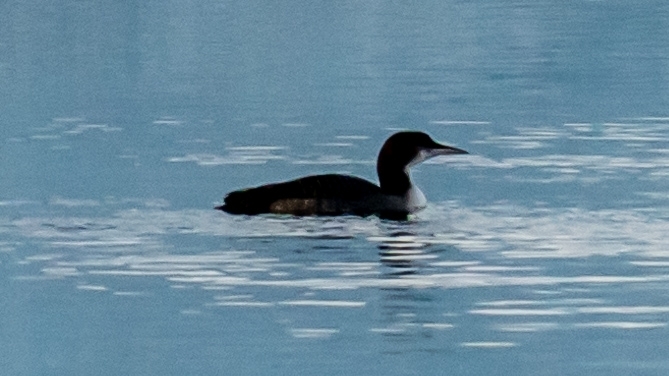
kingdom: Animalia
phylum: Chordata
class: Aves
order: Gaviiformes
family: Gaviidae
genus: Gavia
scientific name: Gavia immer
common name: Common loon
